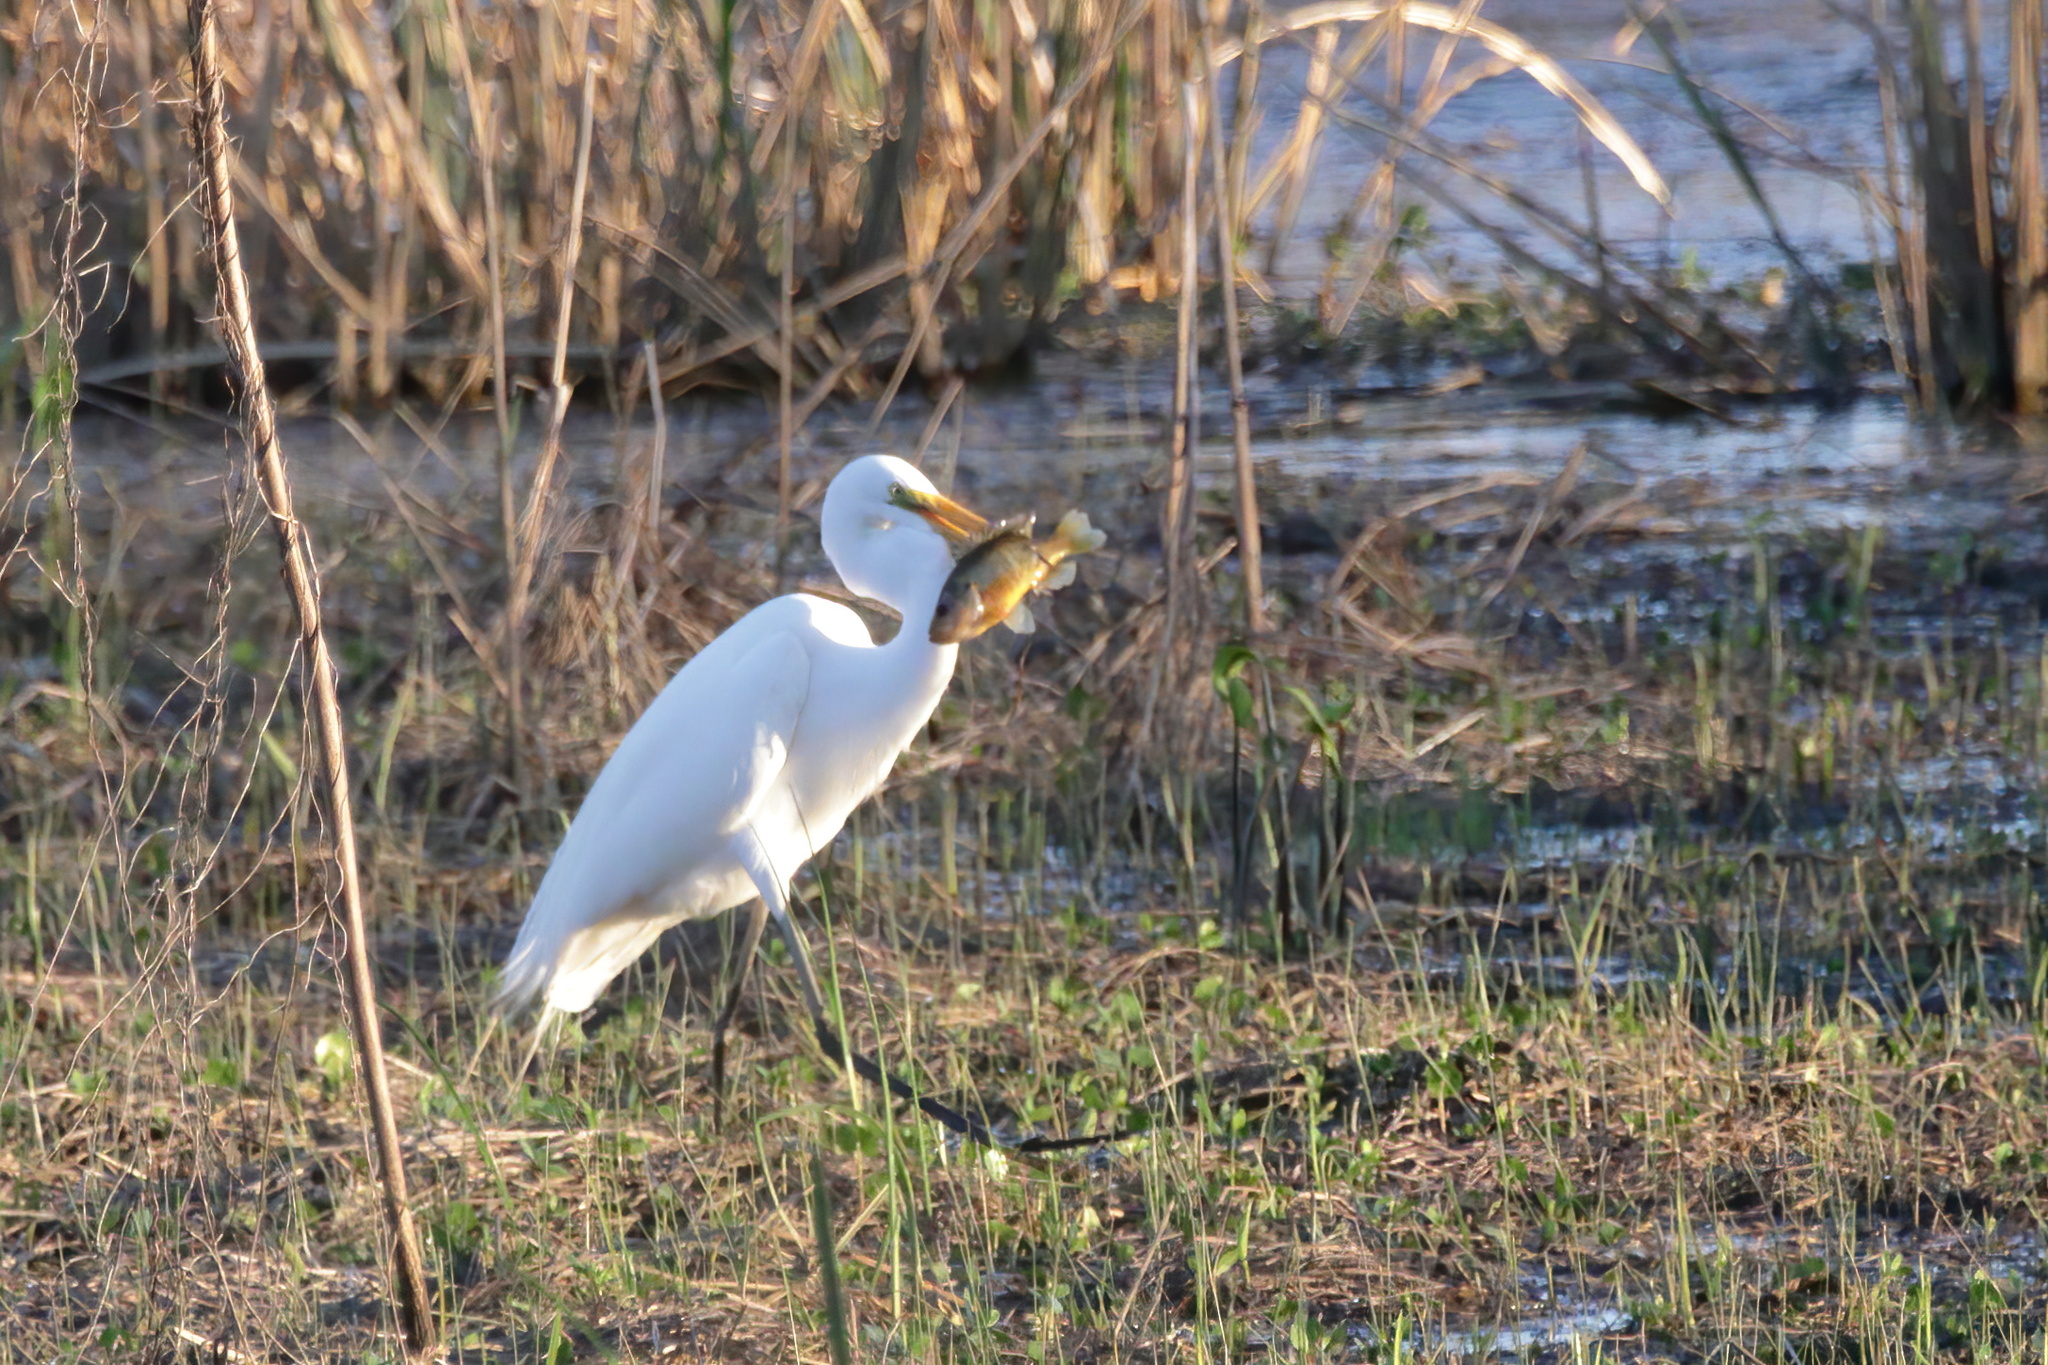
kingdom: Animalia
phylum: Chordata
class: Aves
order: Pelecaniformes
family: Ardeidae
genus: Ardea
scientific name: Ardea alba
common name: Great egret
